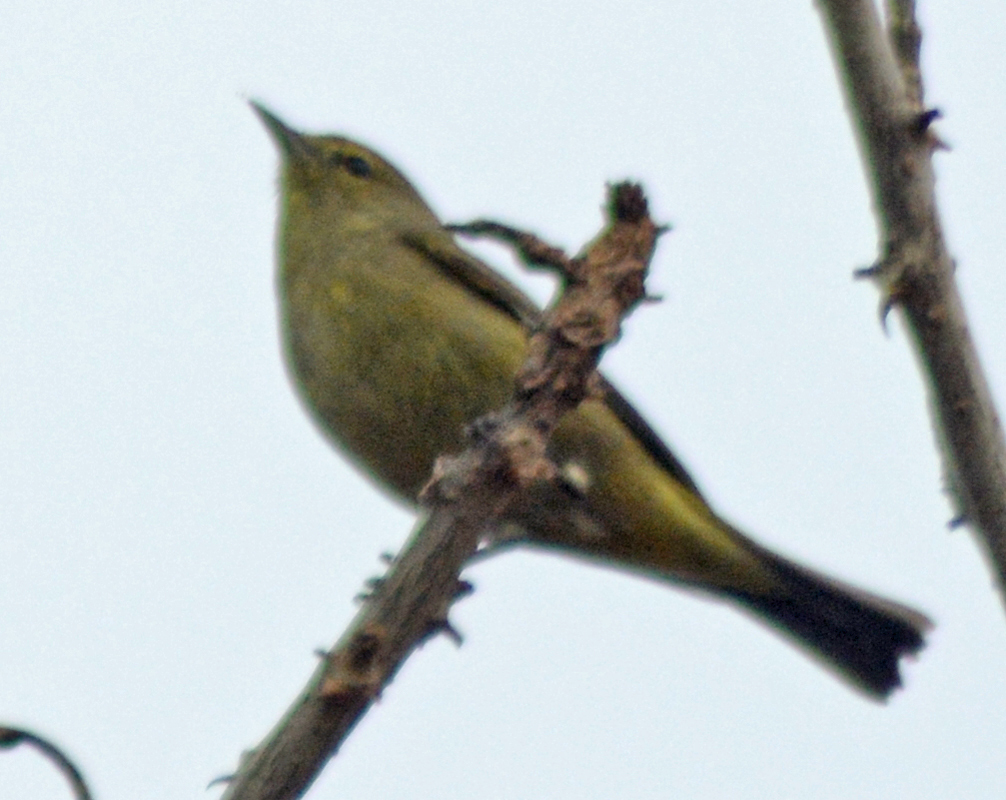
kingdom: Animalia
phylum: Chordata
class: Aves
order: Passeriformes
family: Parulidae
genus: Leiothlypis
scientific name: Leiothlypis celata
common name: Orange-crowned warbler
